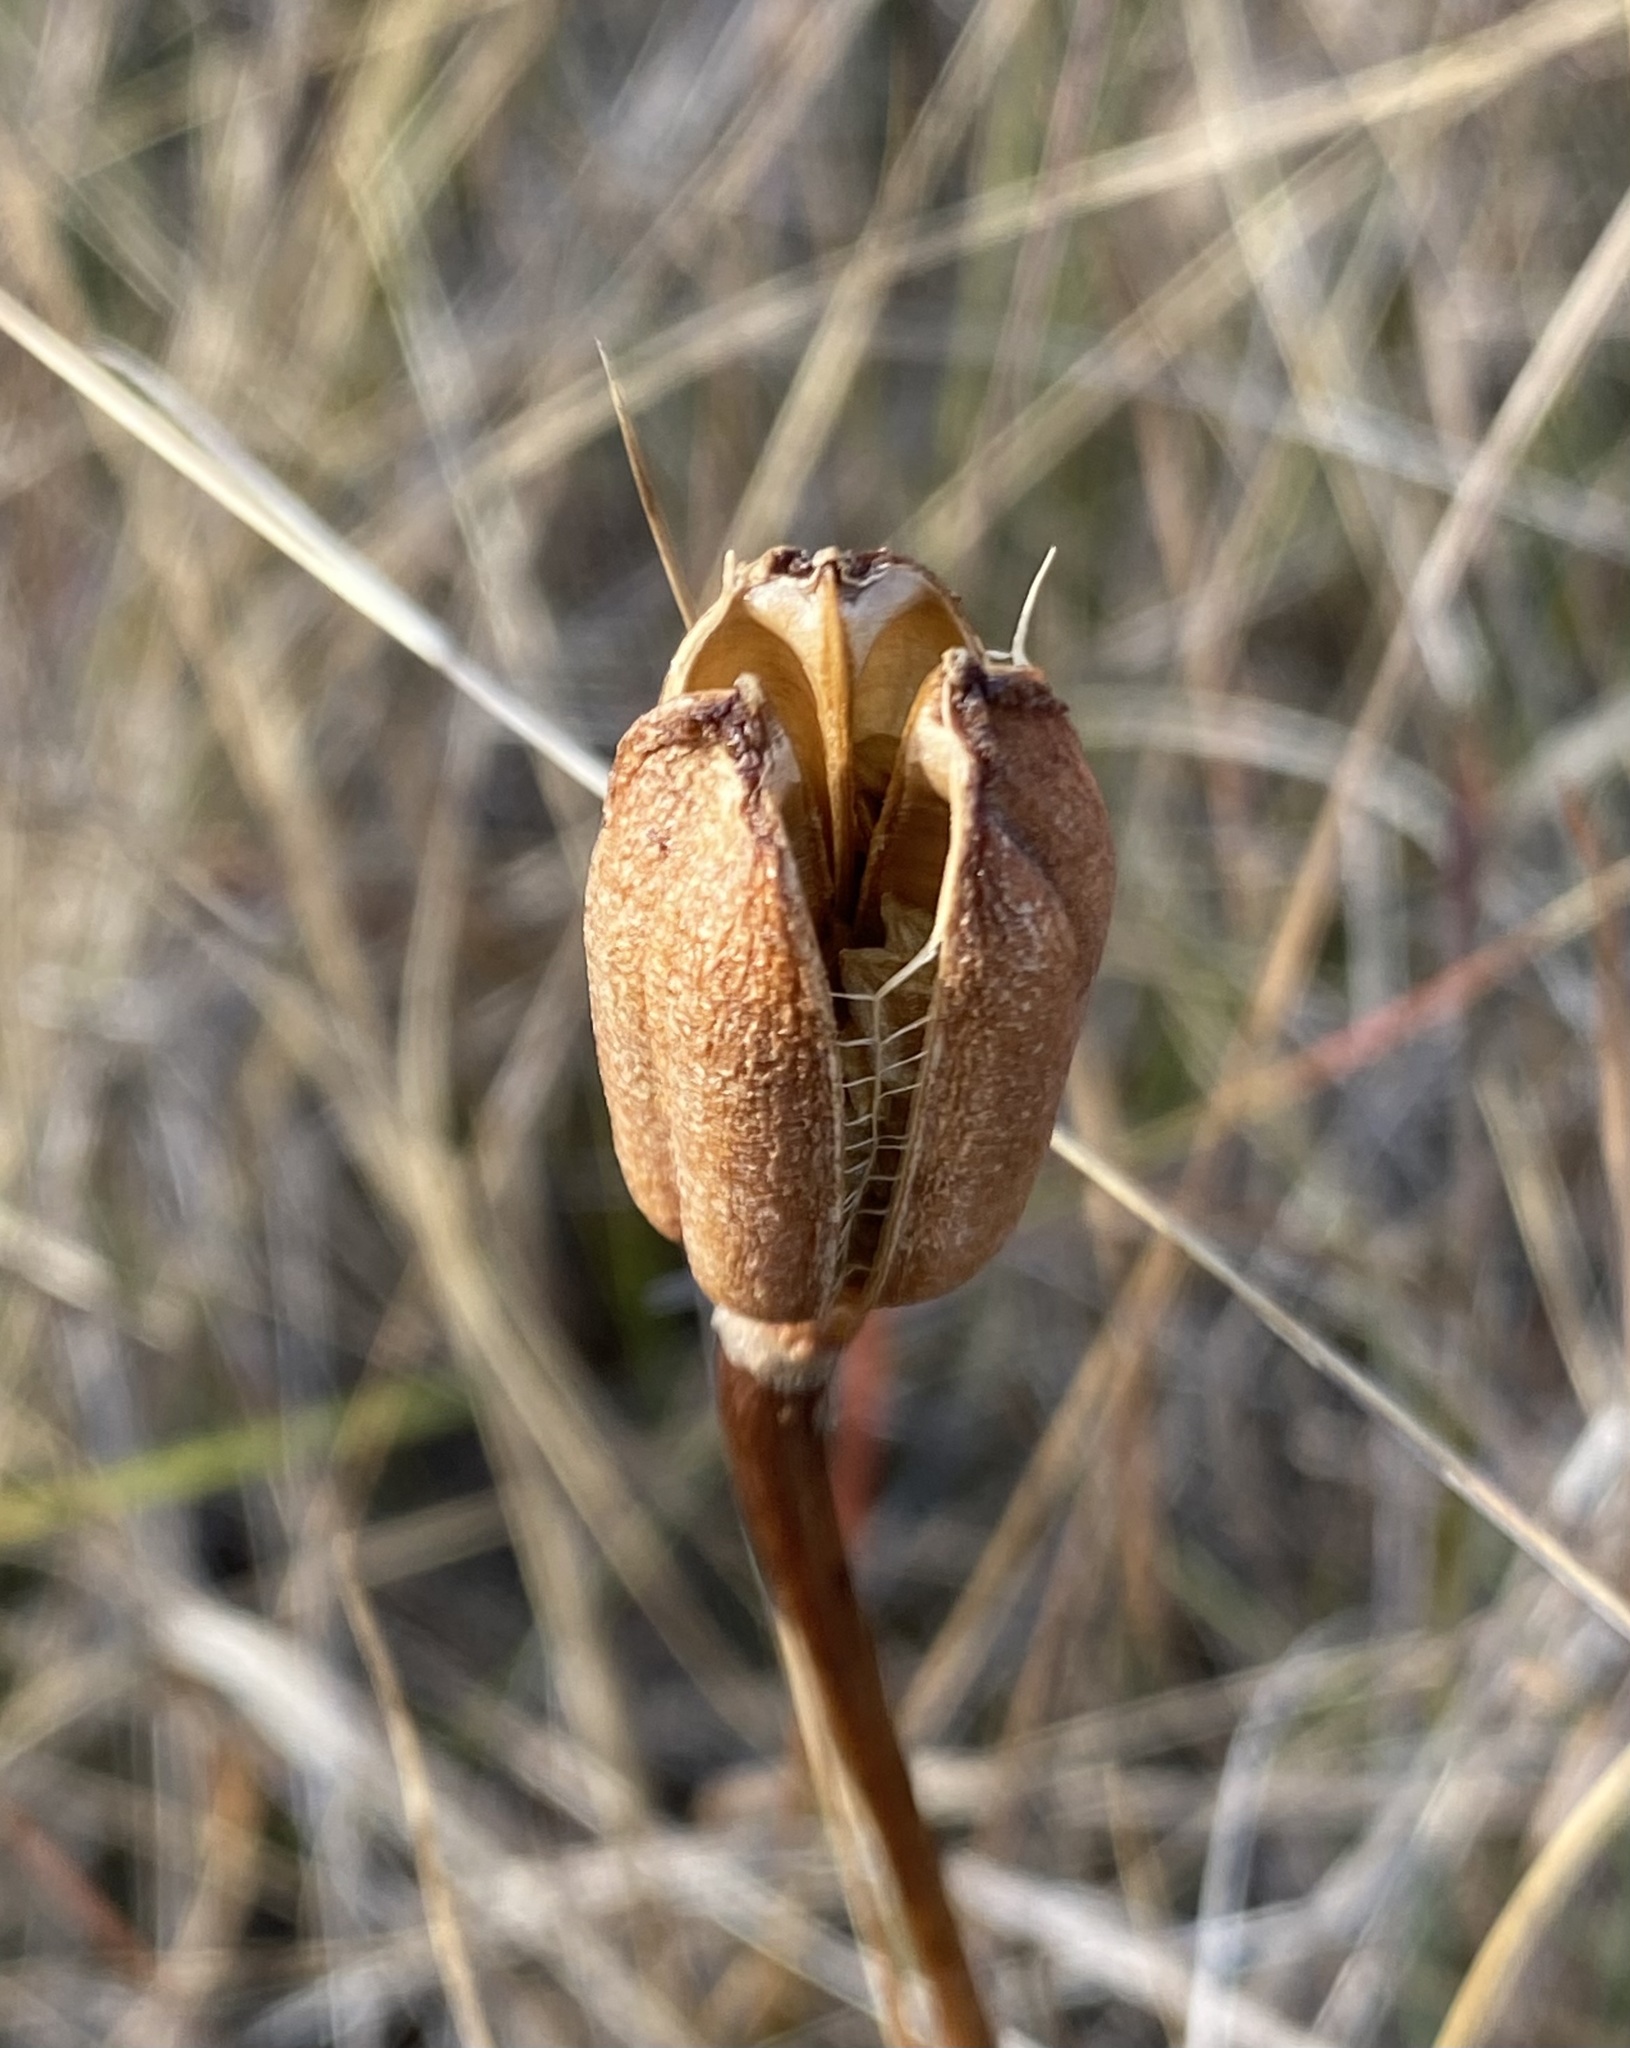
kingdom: Plantae
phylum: Tracheophyta
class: Liliopsida
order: Liliales
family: Liliaceae
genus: Lilium
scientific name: Lilium catesbaei
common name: Catesby's lily
